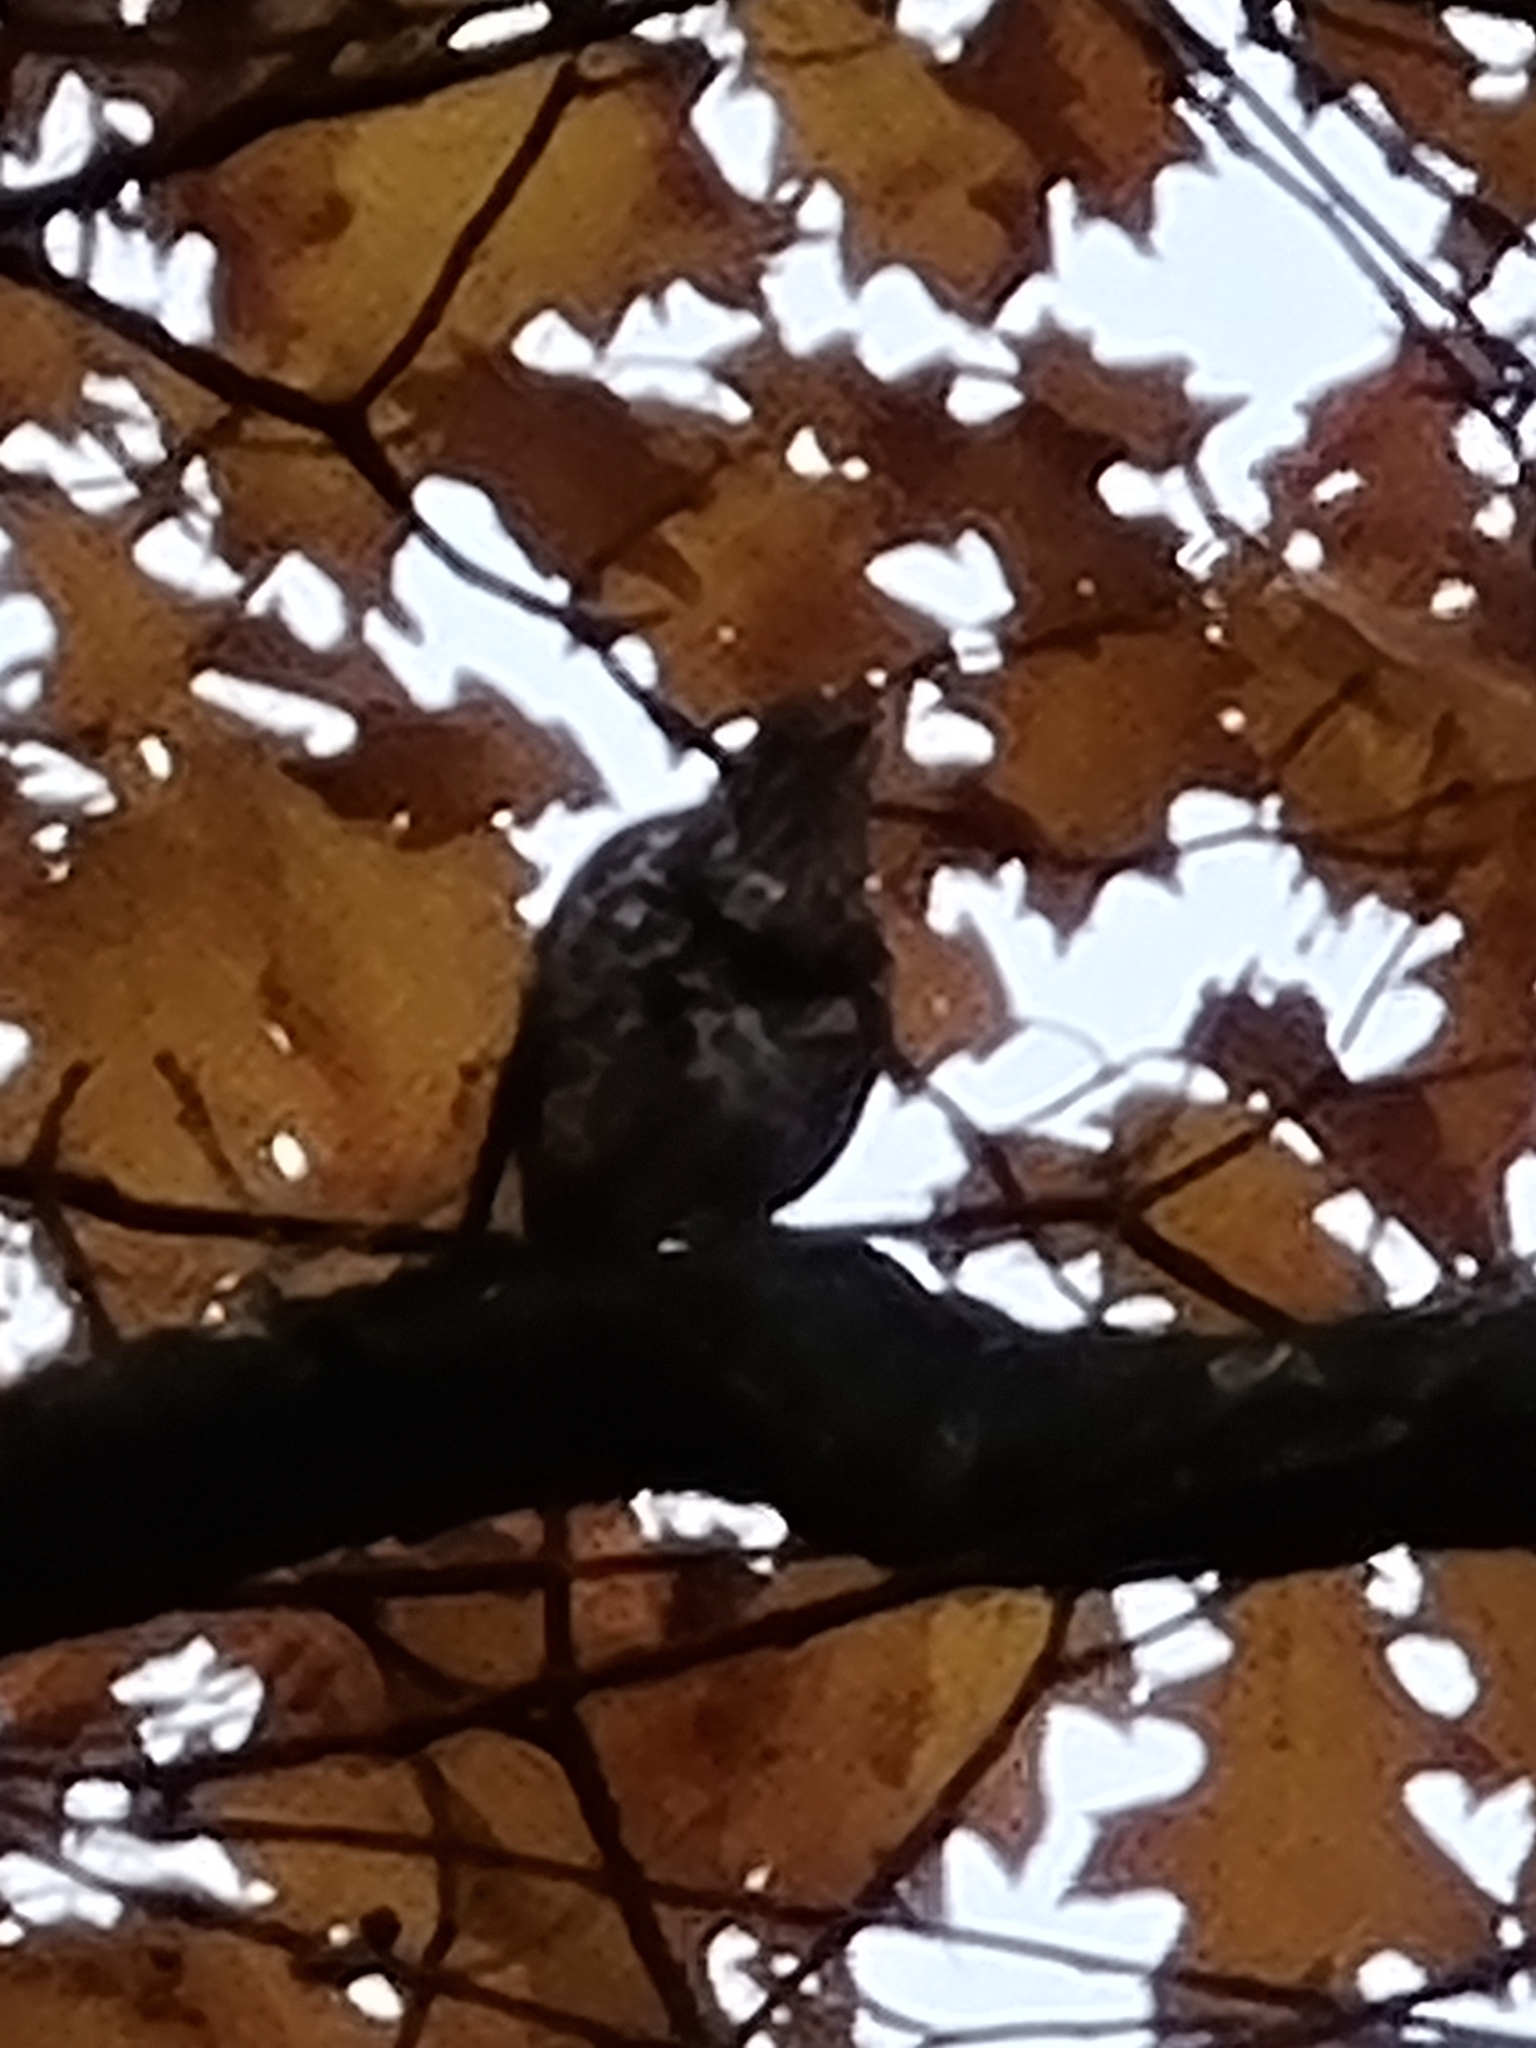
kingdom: Animalia
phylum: Chordata
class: Aves
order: Passeriformes
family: Turdidae
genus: Turdus
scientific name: Turdus viscivorus
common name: Mistle thrush
